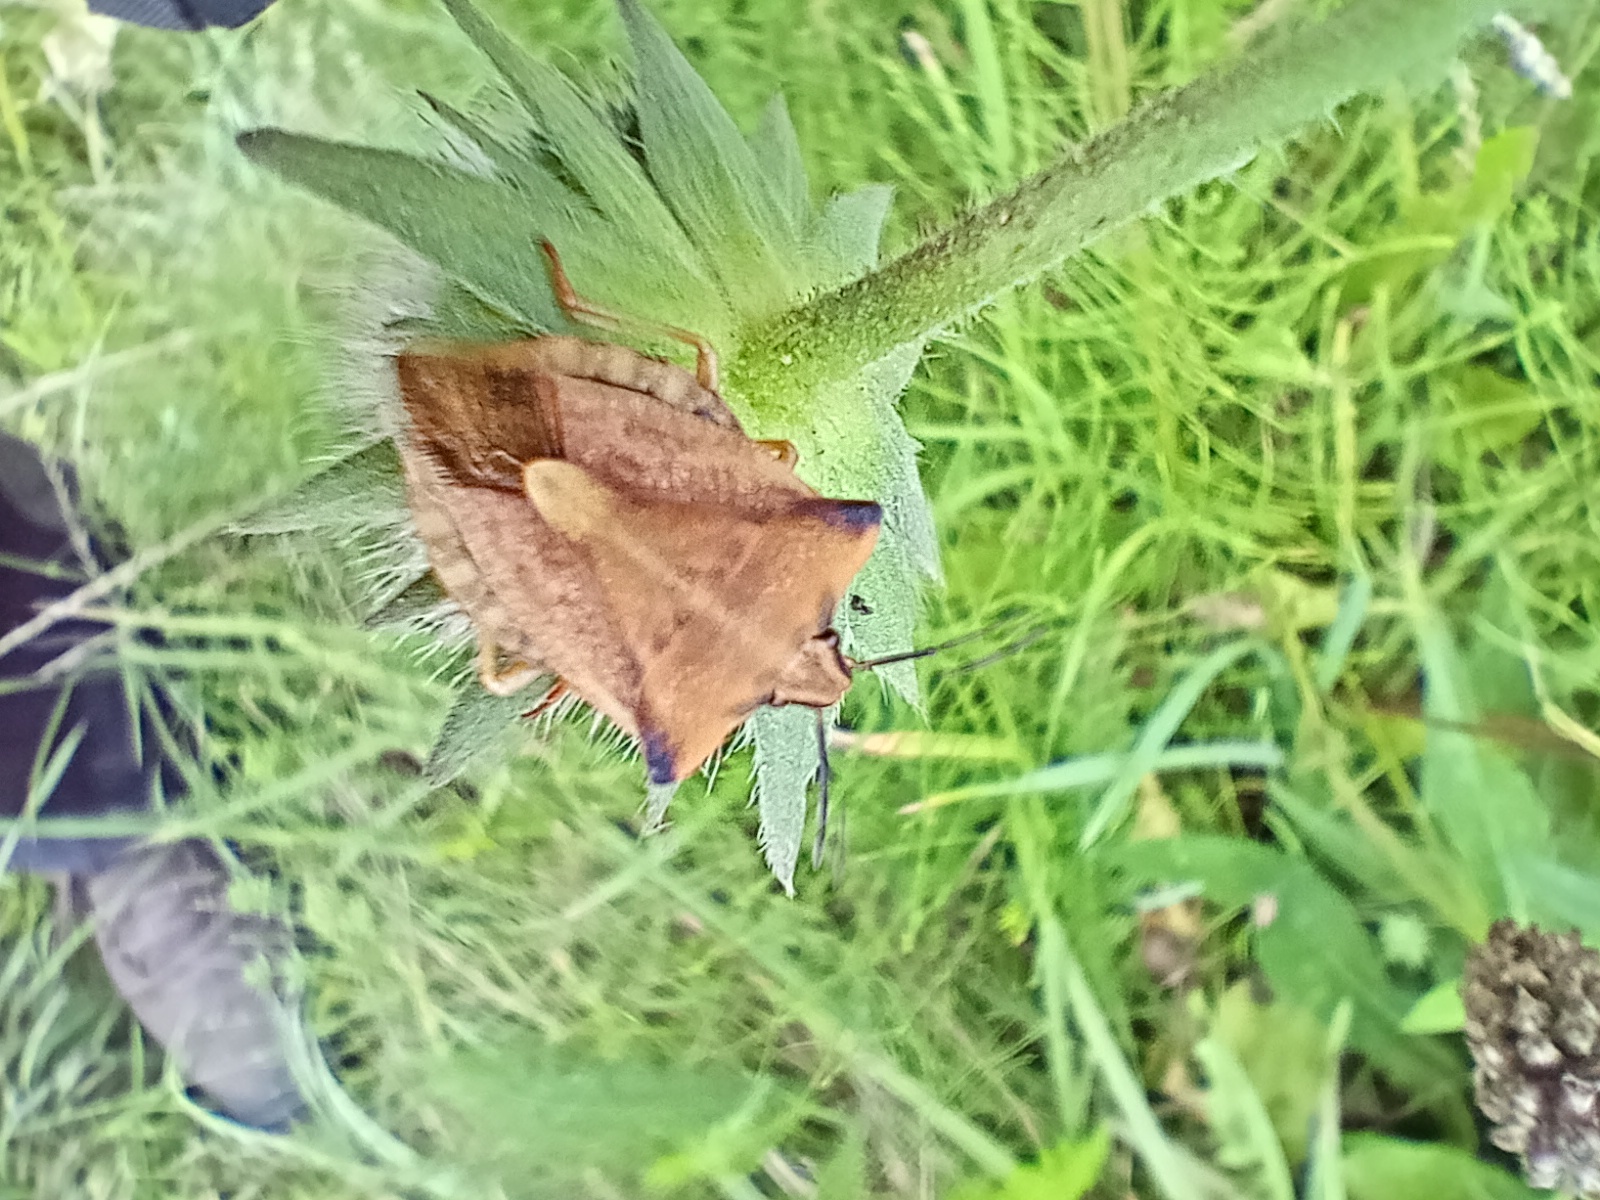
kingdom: Animalia
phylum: Arthropoda
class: Insecta
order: Hemiptera
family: Pentatomidae
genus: Carpocoris
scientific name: Carpocoris fuscispinus
